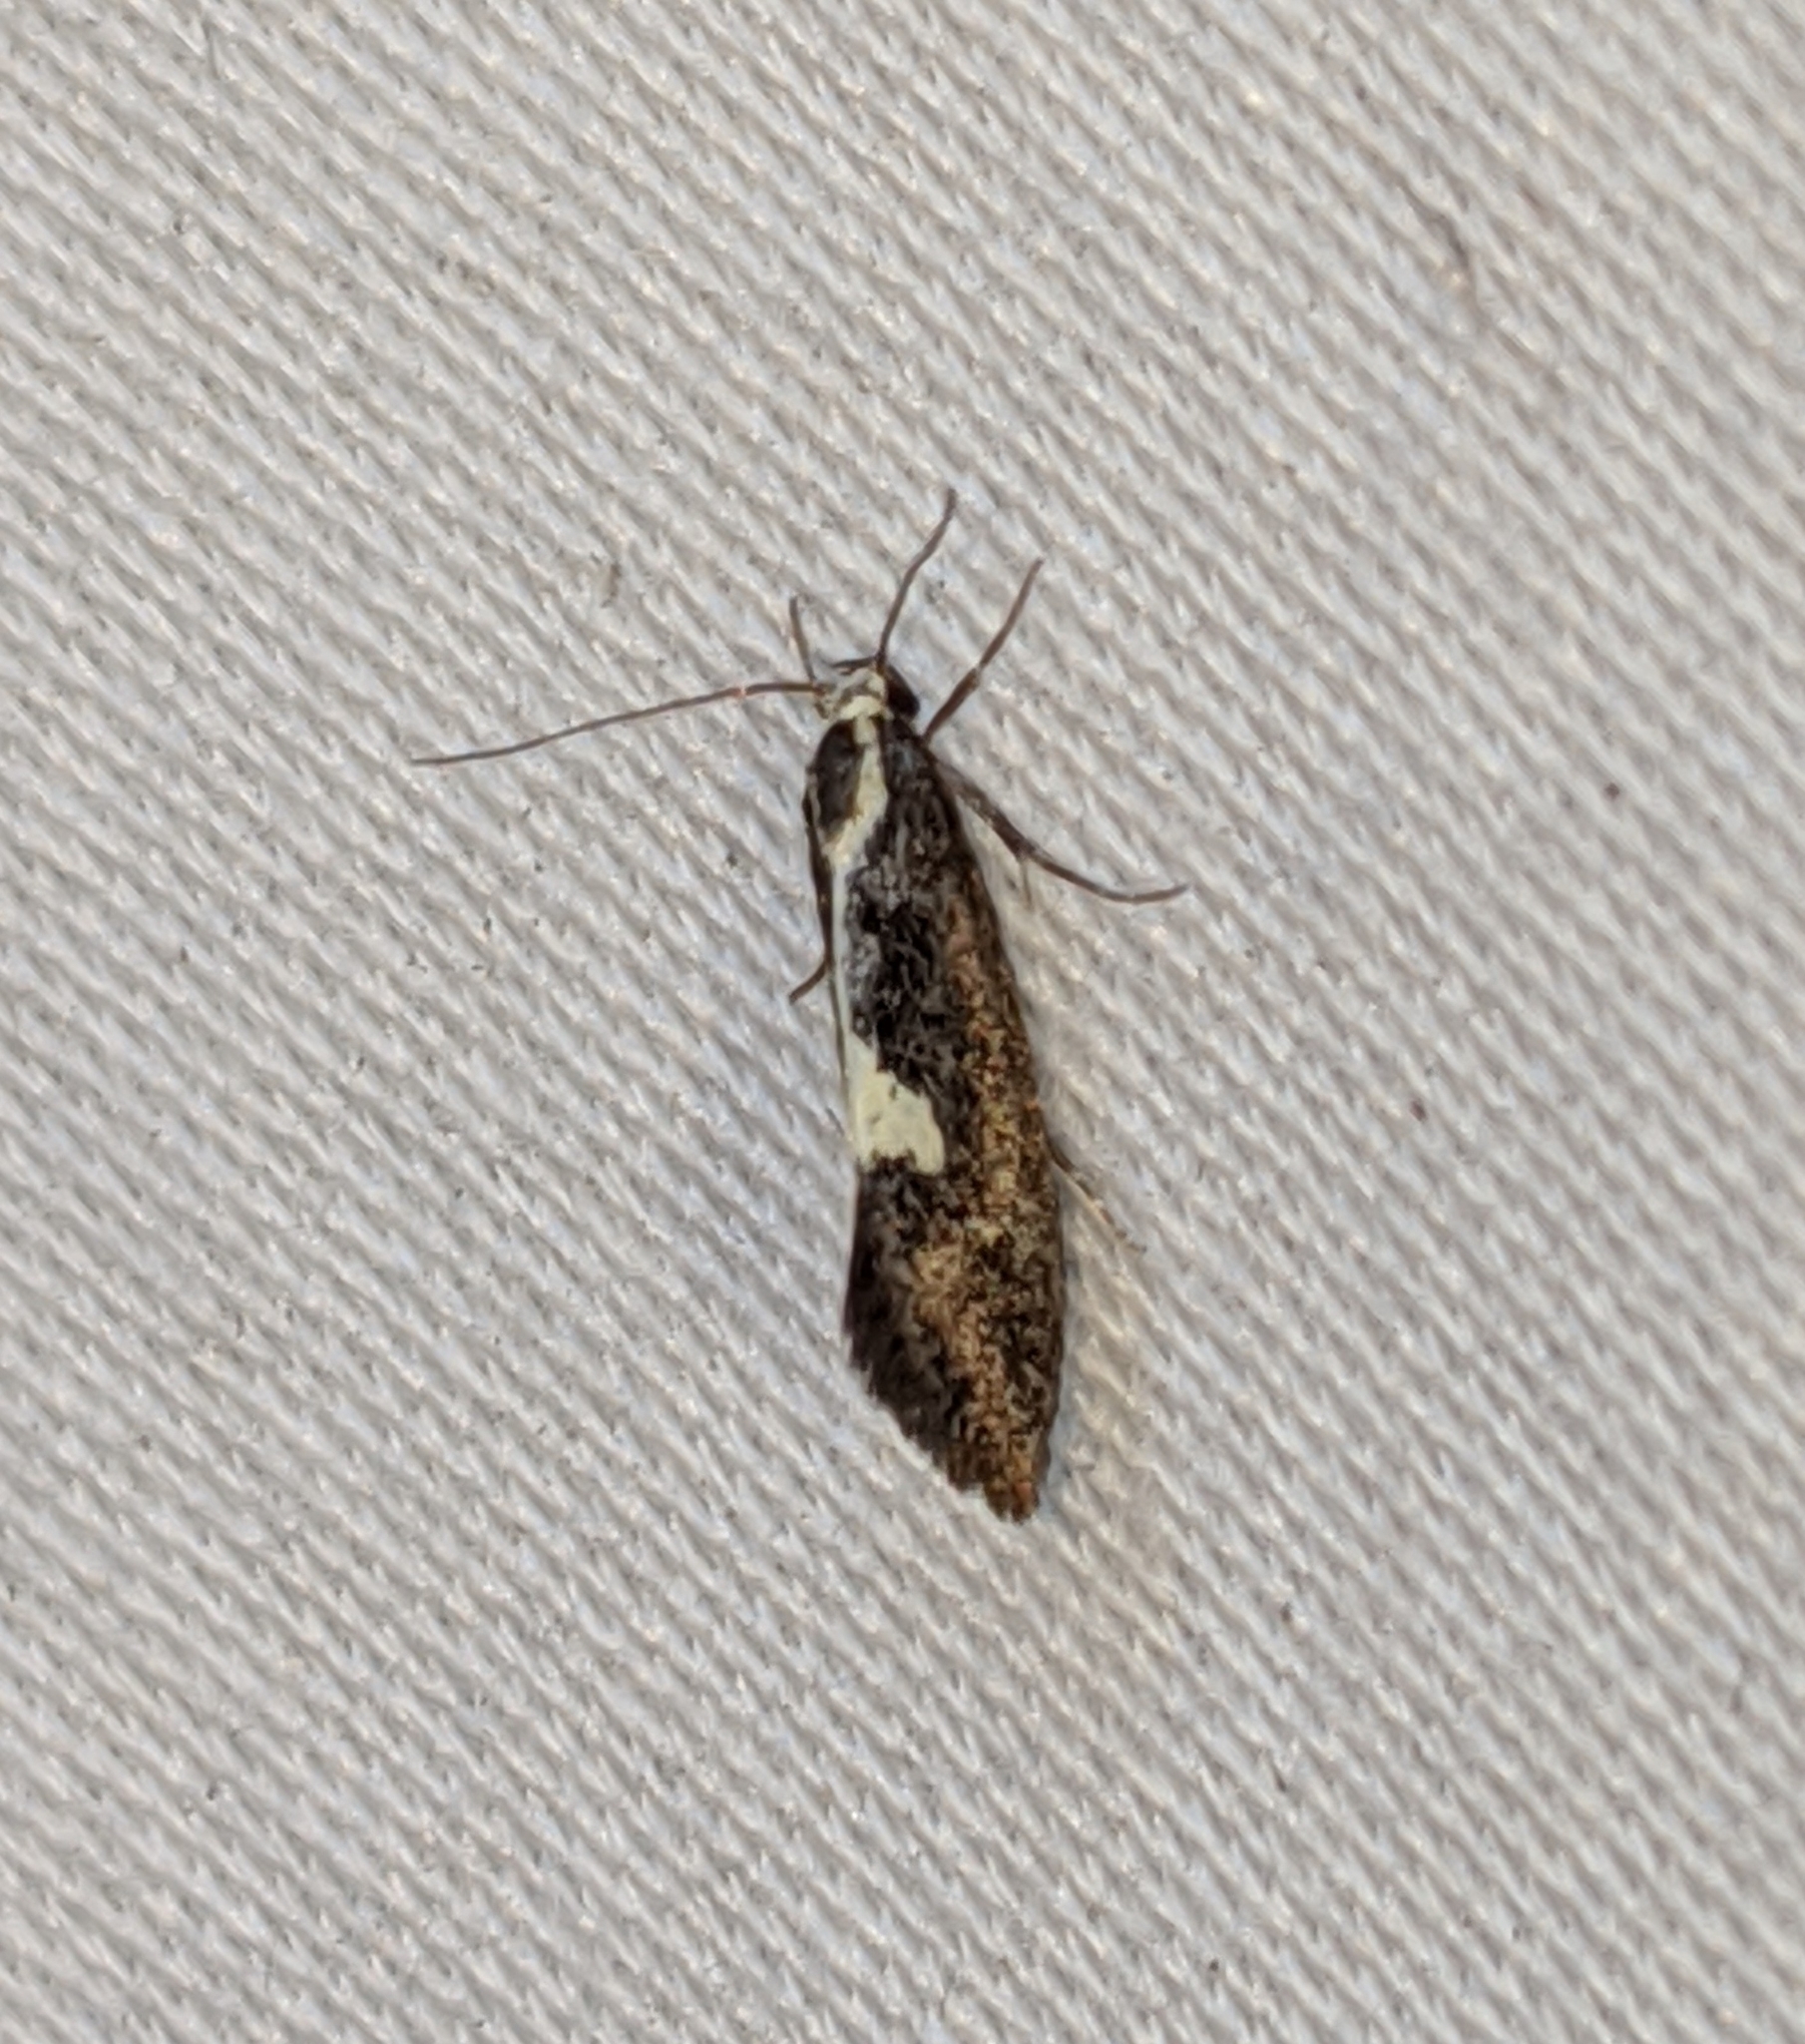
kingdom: Animalia
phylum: Arthropoda
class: Insecta
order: Lepidoptera
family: Oecophoridae
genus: Polix
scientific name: Polix coloradella
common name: Skunk moth
